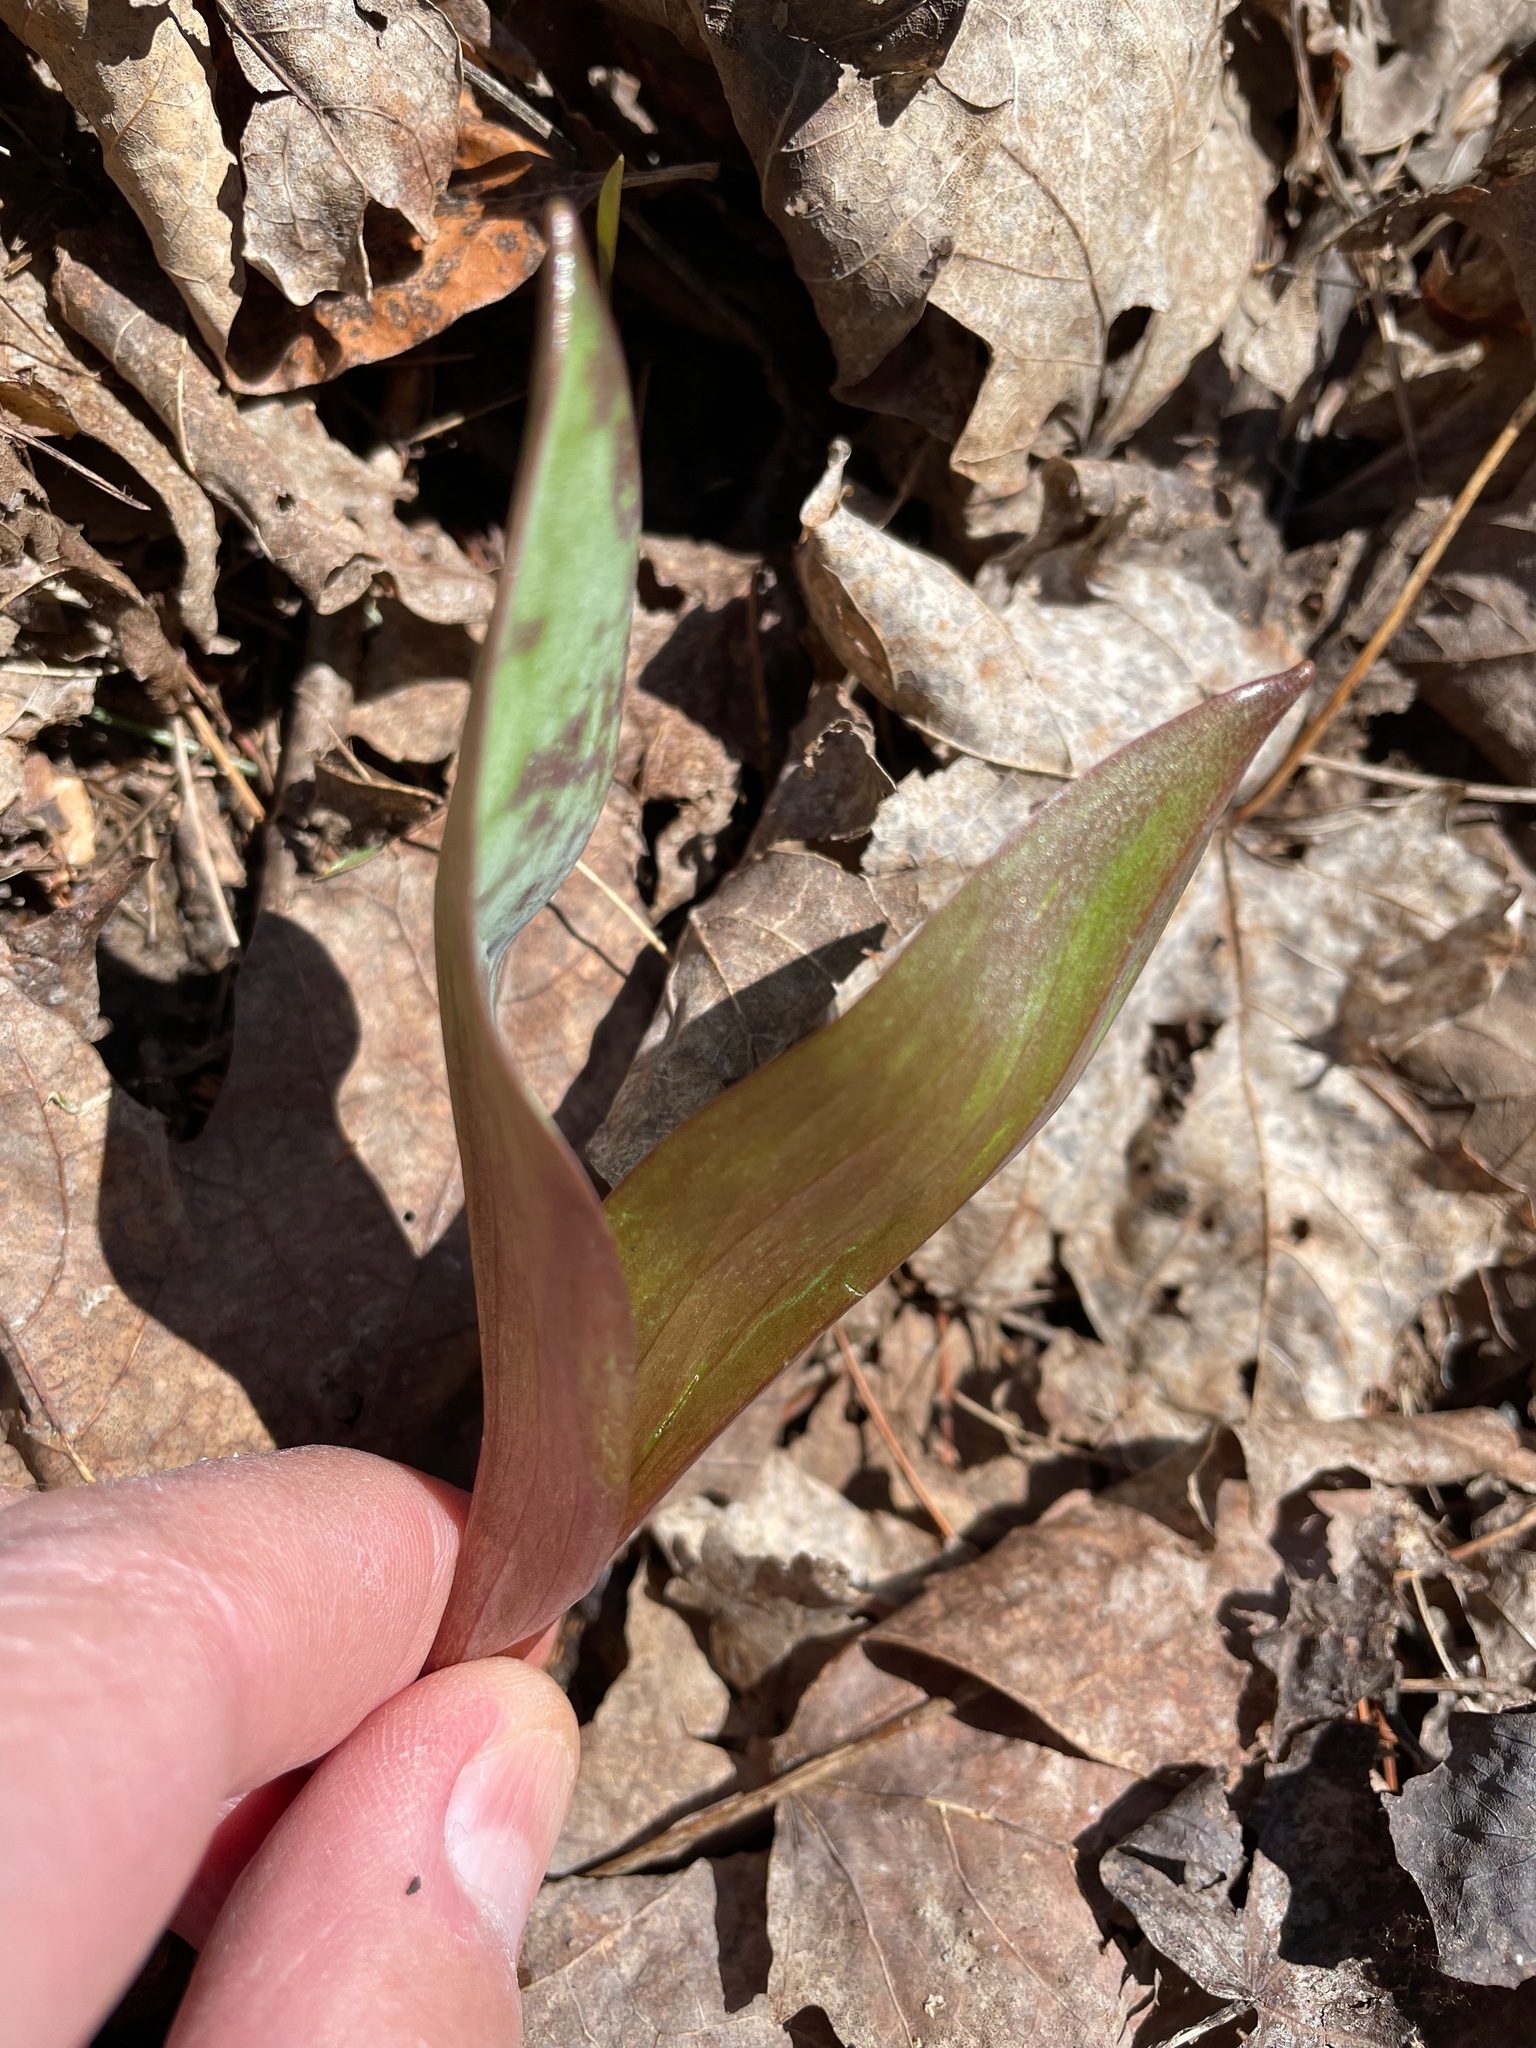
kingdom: Plantae
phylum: Tracheophyta
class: Liliopsida
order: Liliales
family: Liliaceae
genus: Erythronium
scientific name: Erythronium americanum
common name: Yellow adder's-tongue
